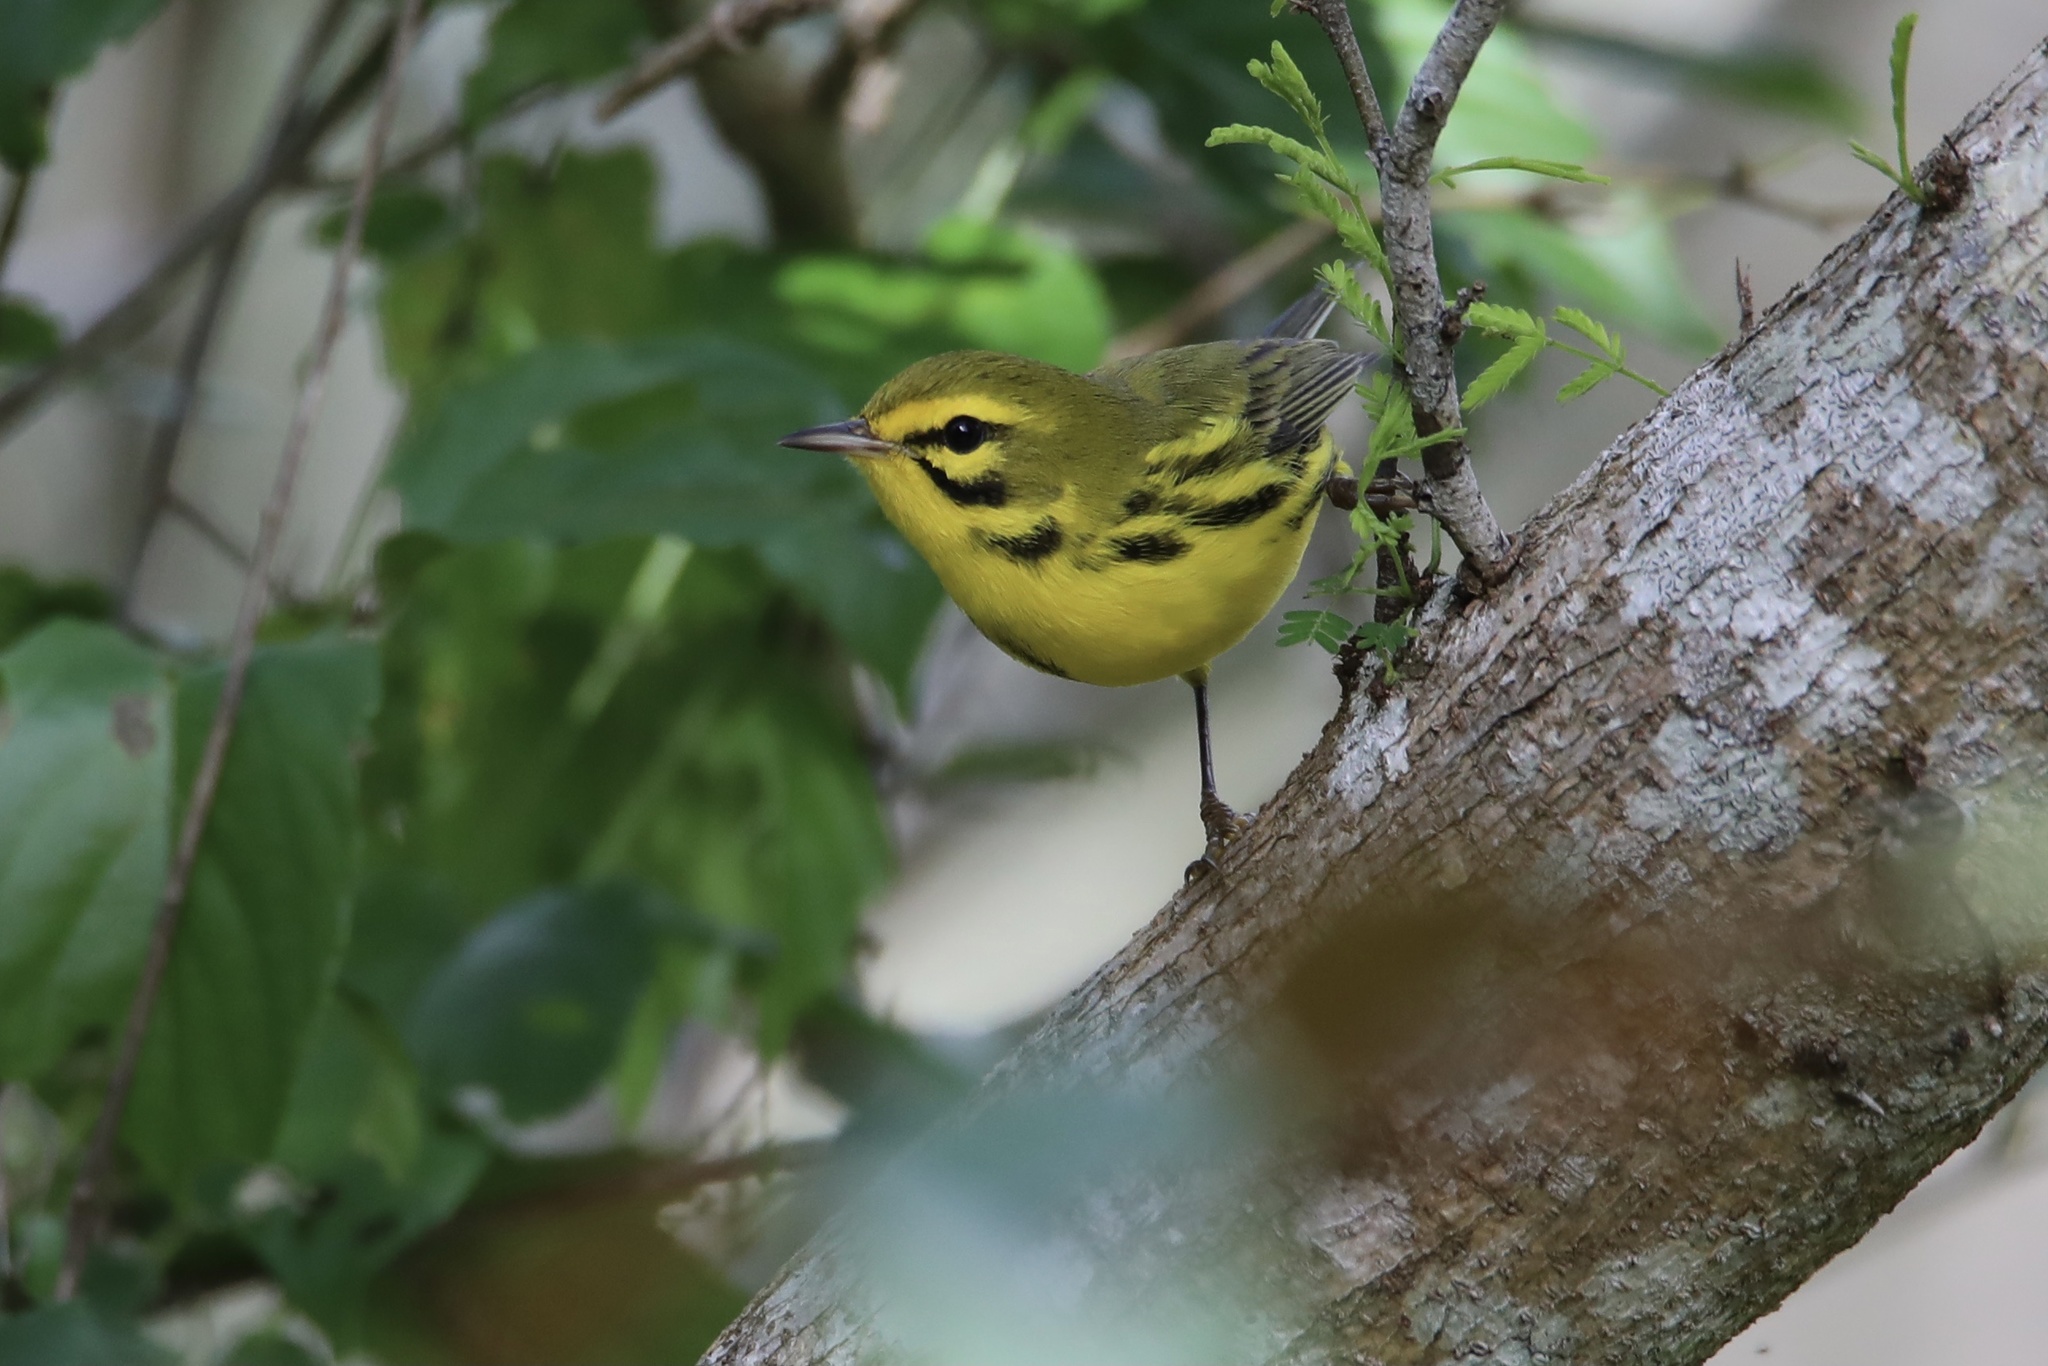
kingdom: Animalia
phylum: Chordata
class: Aves
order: Passeriformes
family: Parulidae
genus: Setophaga
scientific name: Setophaga discolor
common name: Prairie warbler
